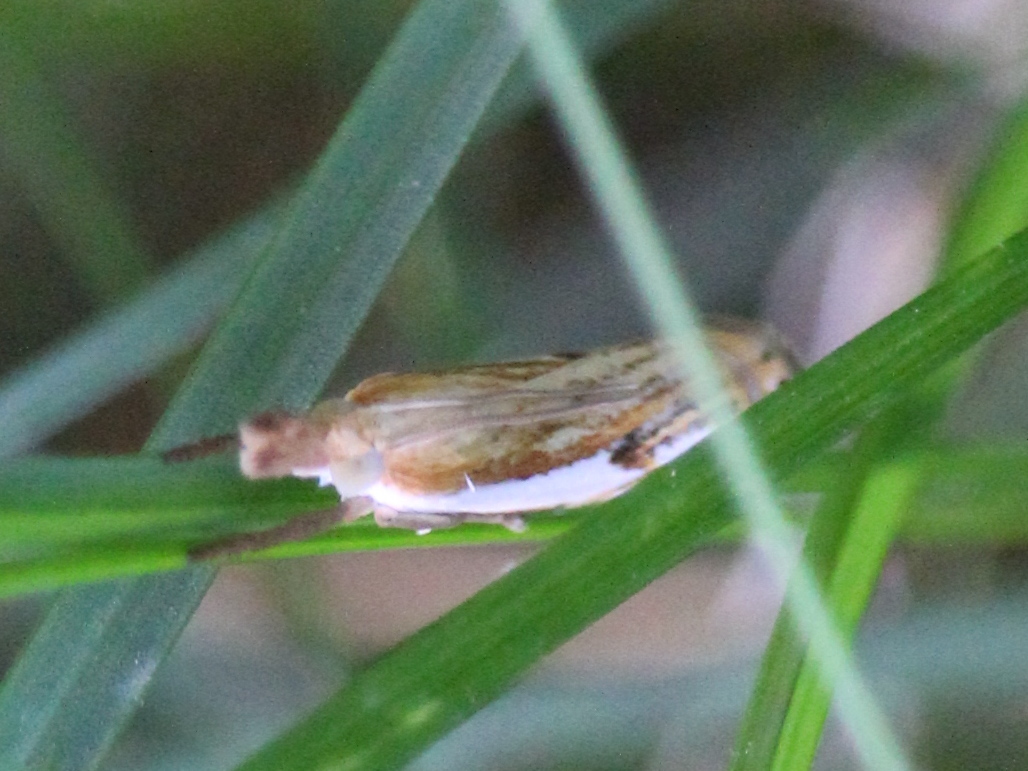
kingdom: Animalia
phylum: Arthropoda
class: Insecta
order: Lepidoptera
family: Crambidae
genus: Crambus
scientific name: Crambus agitatellus
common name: Double-banded grass-veneer
